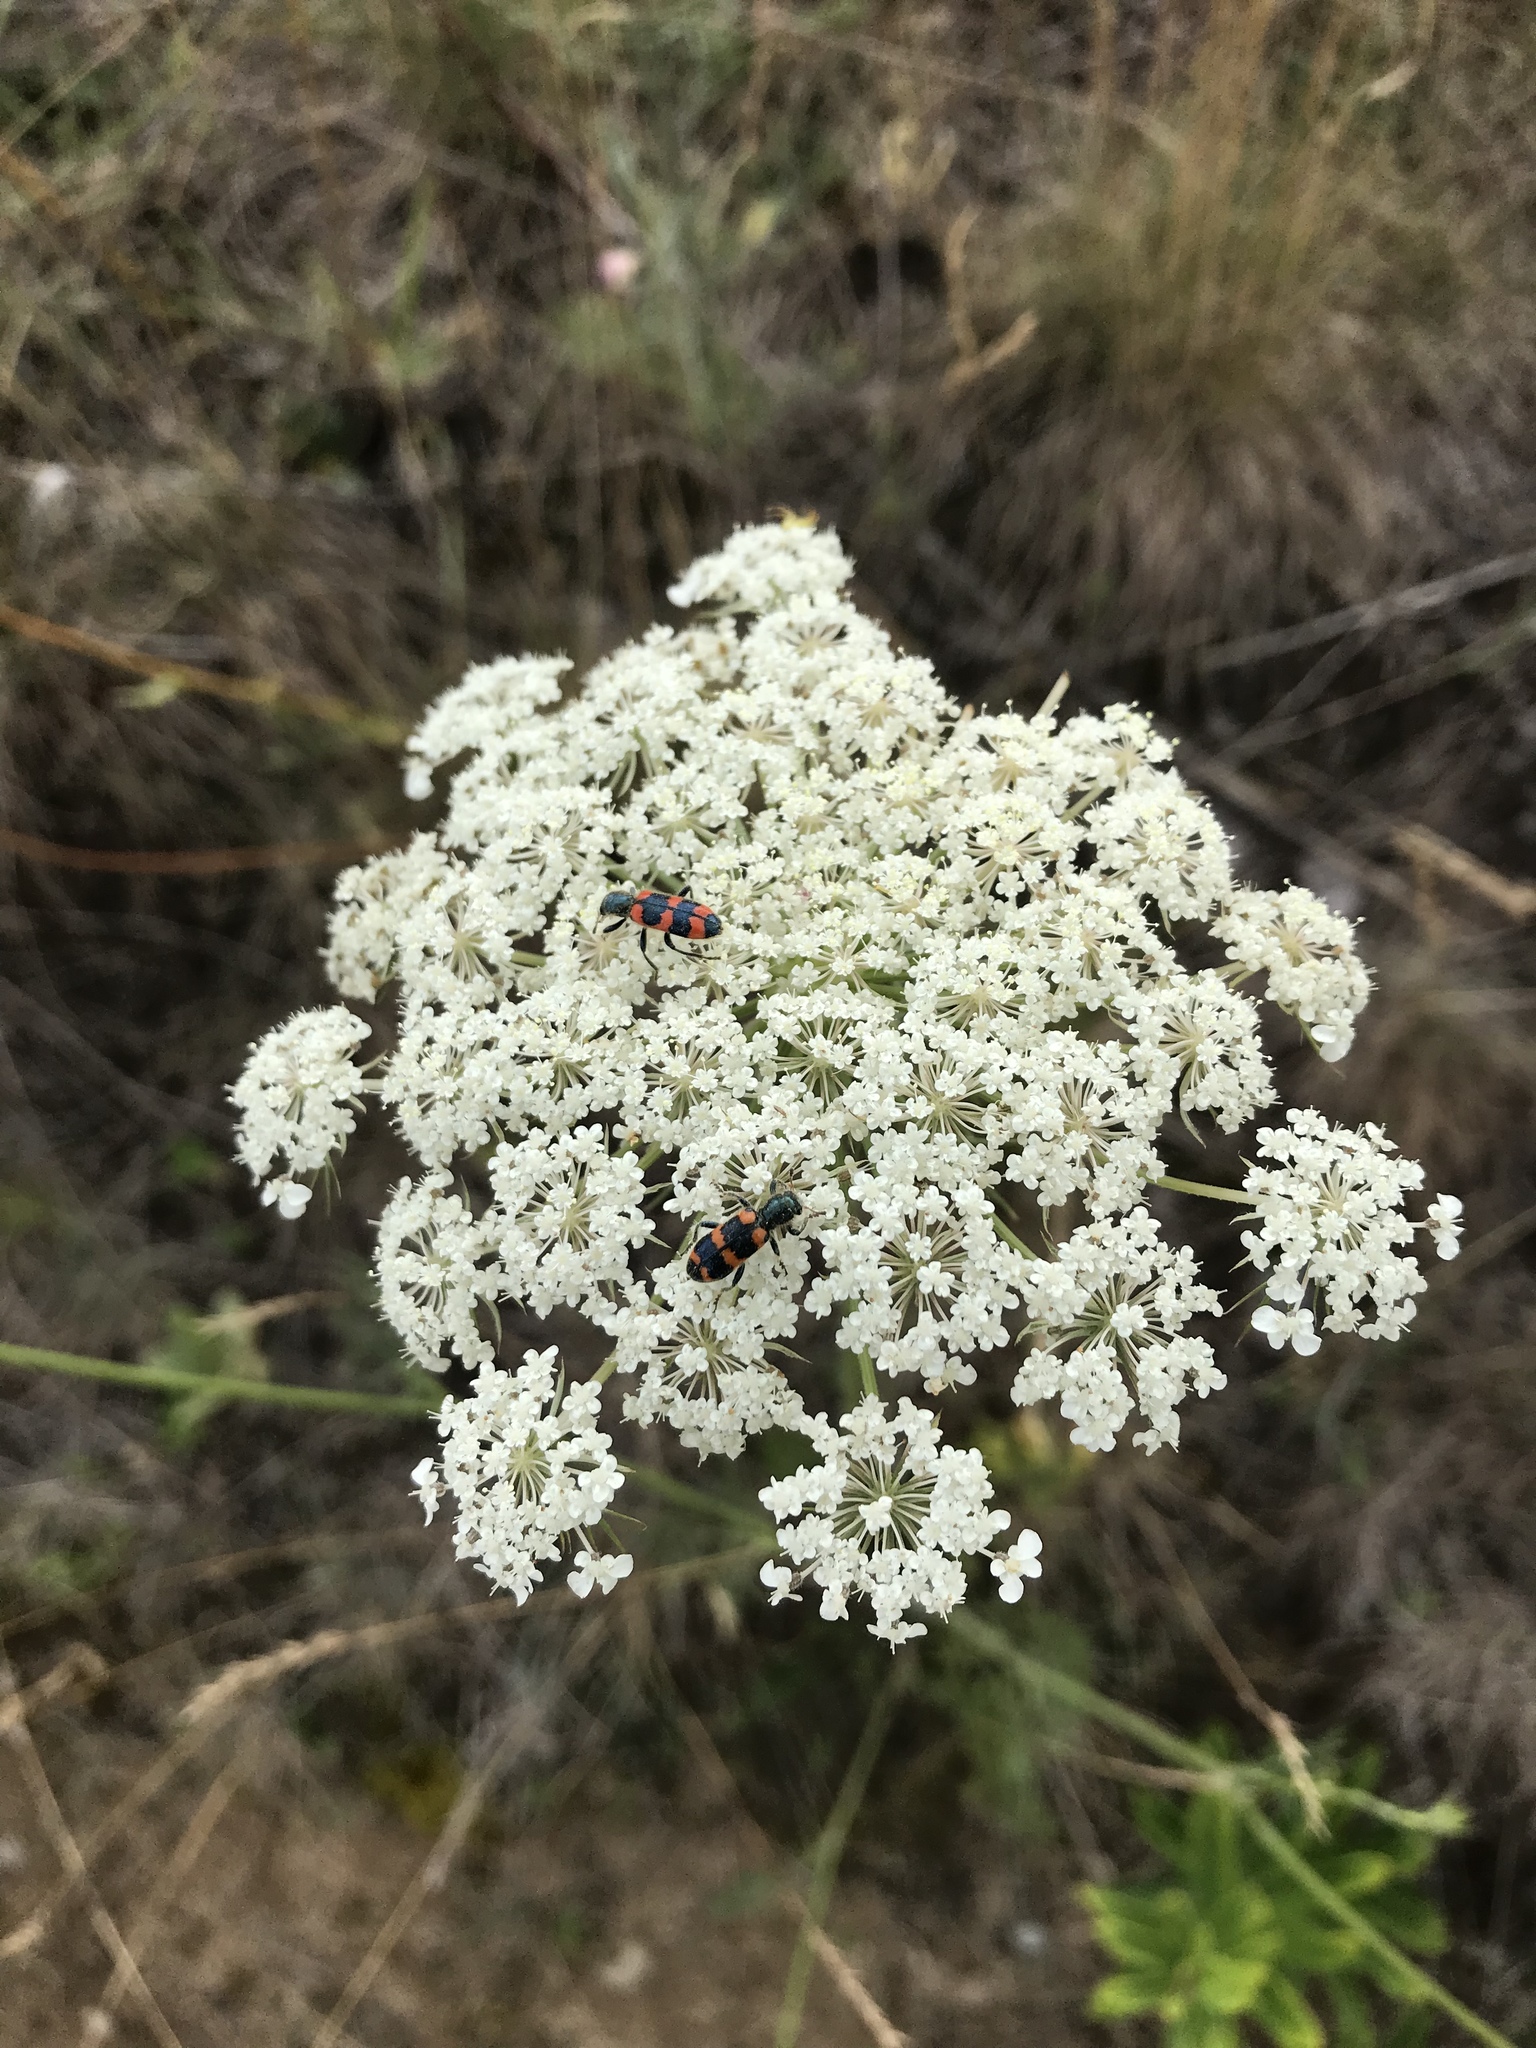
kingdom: Animalia
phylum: Arthropoda
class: Insecta
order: Coleoptera
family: Cleridae
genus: Trichodes
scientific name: Trichodes nutalli
